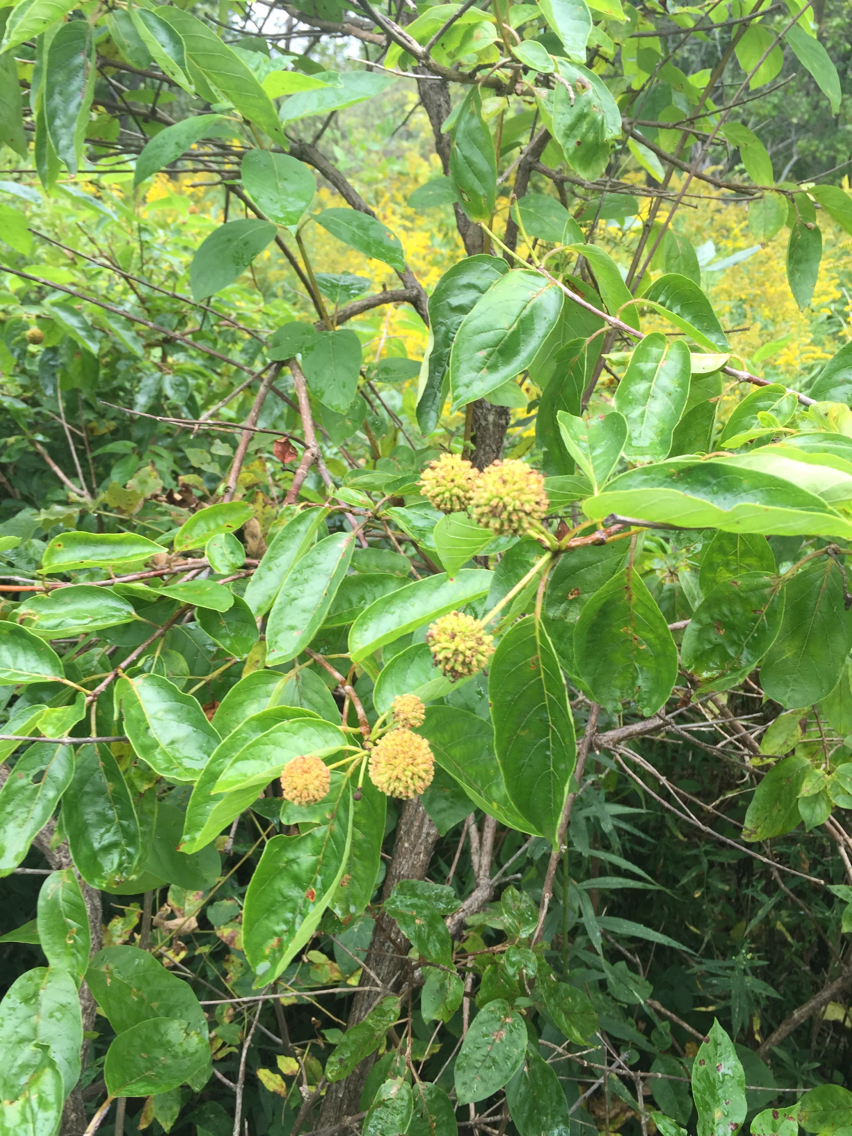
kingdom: Plantae
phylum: Tracheophyta
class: Magnoliopsida
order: Gentianales
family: Rubiaceae
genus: Cephalanthus
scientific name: Cephalanthus occidentalis
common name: Button-willow
